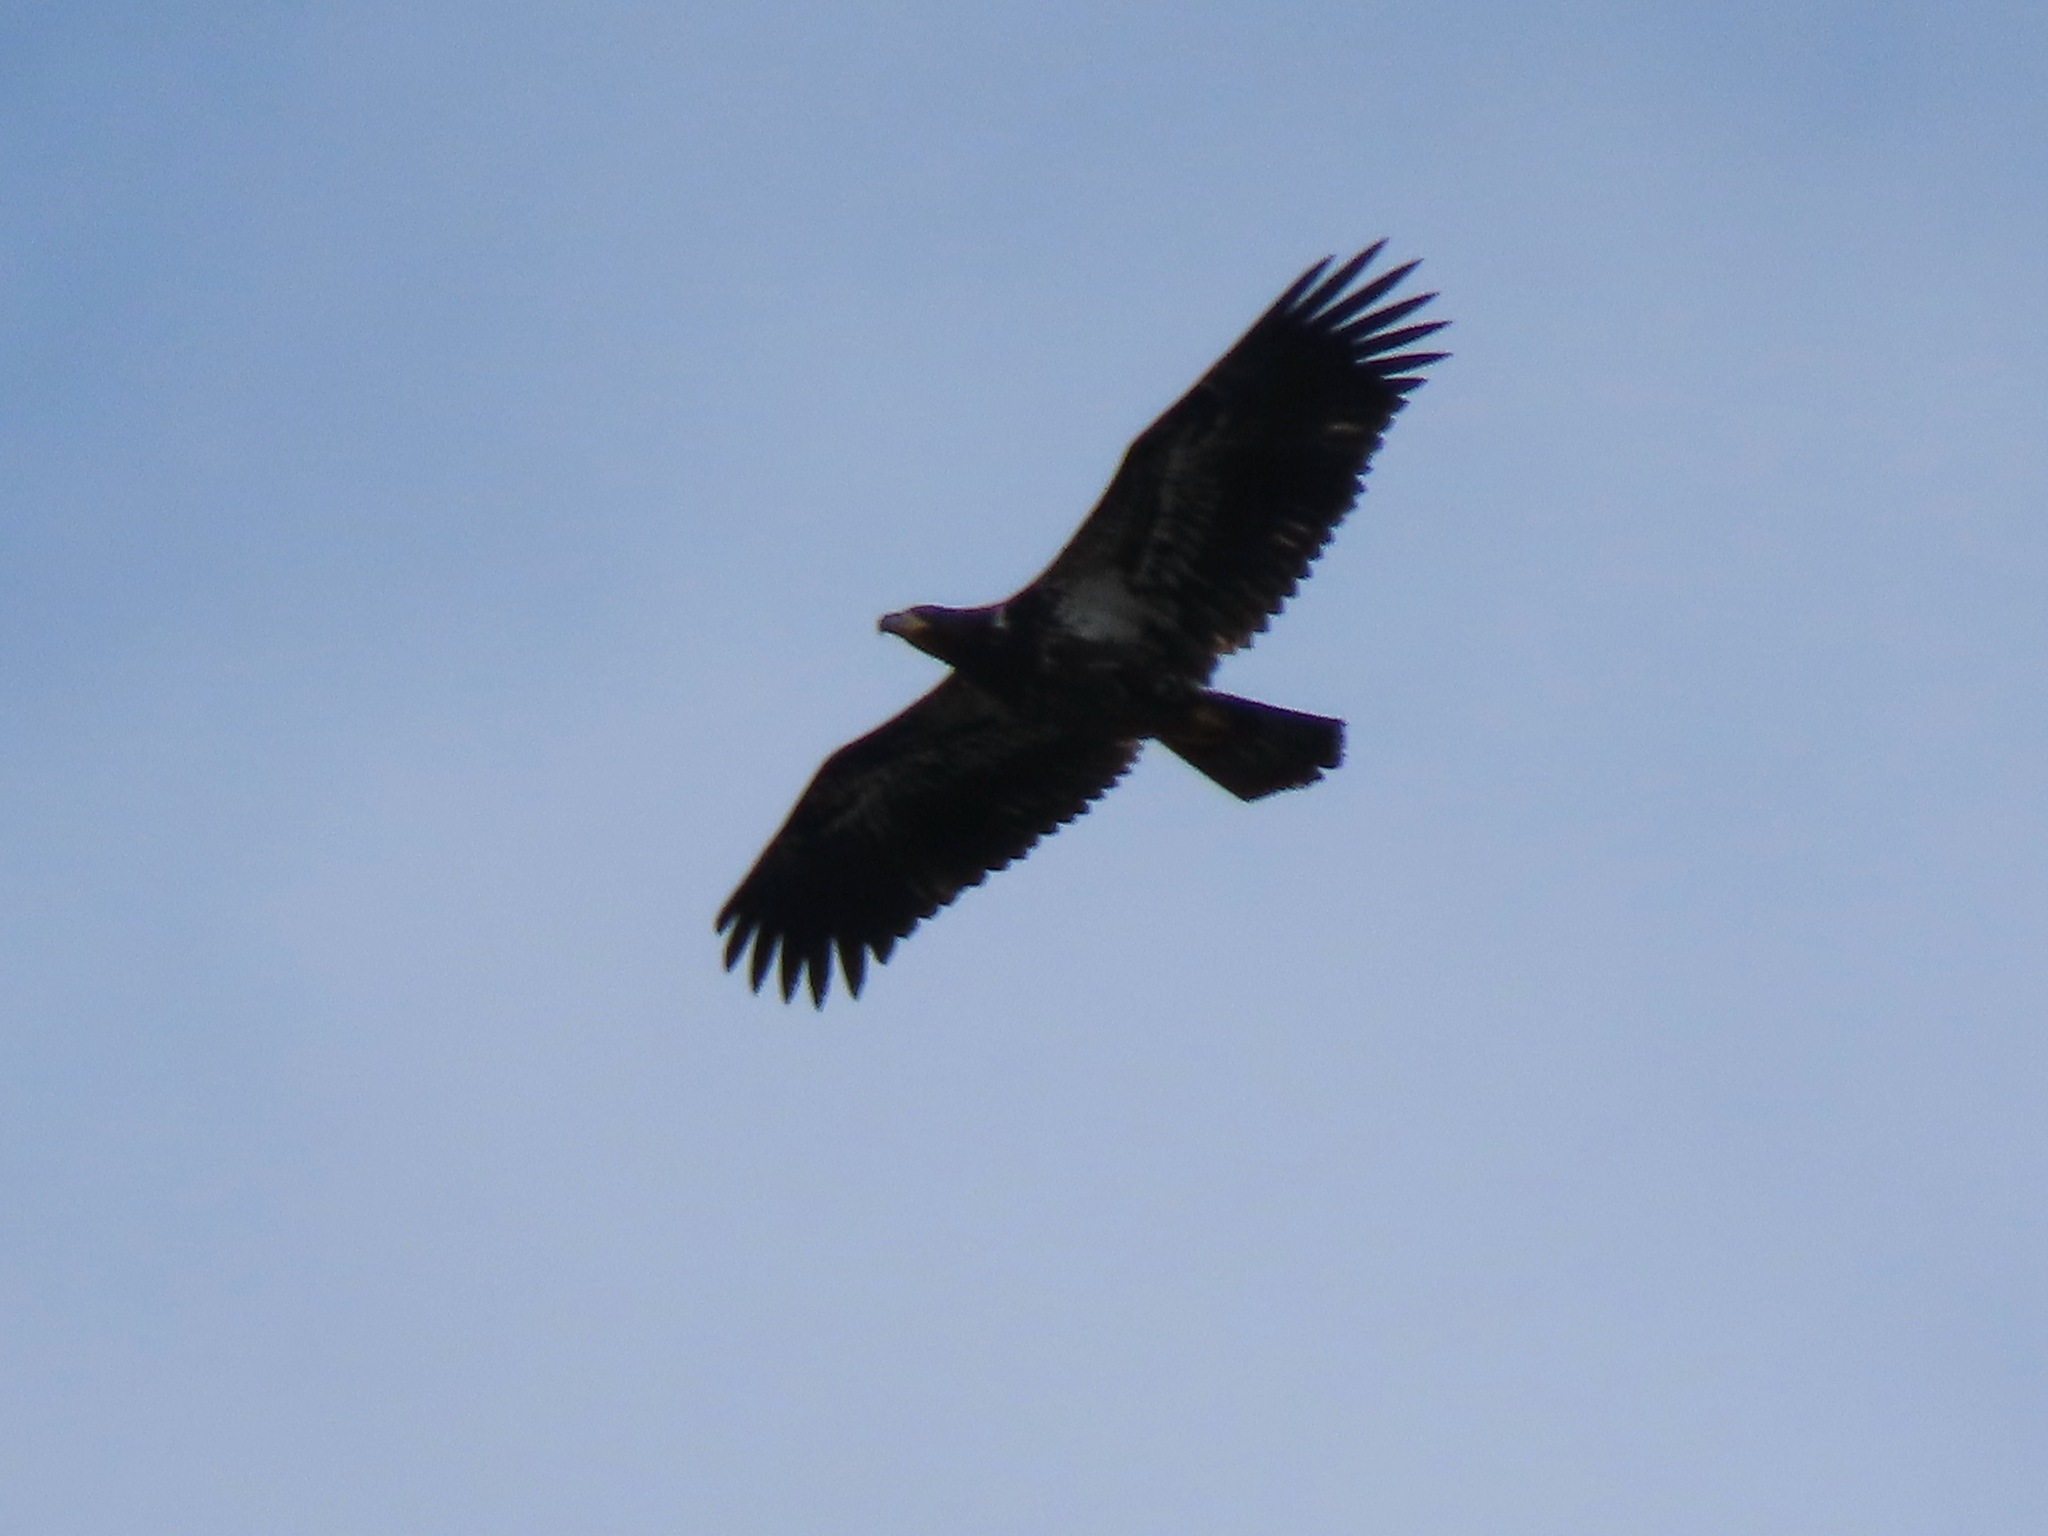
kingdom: Animalia
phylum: Chordata
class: Aves
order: Accipitriformes
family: Accipitridae
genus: Haliaeetus
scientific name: Haliaeetus leucocephalus
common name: Bald eagle
